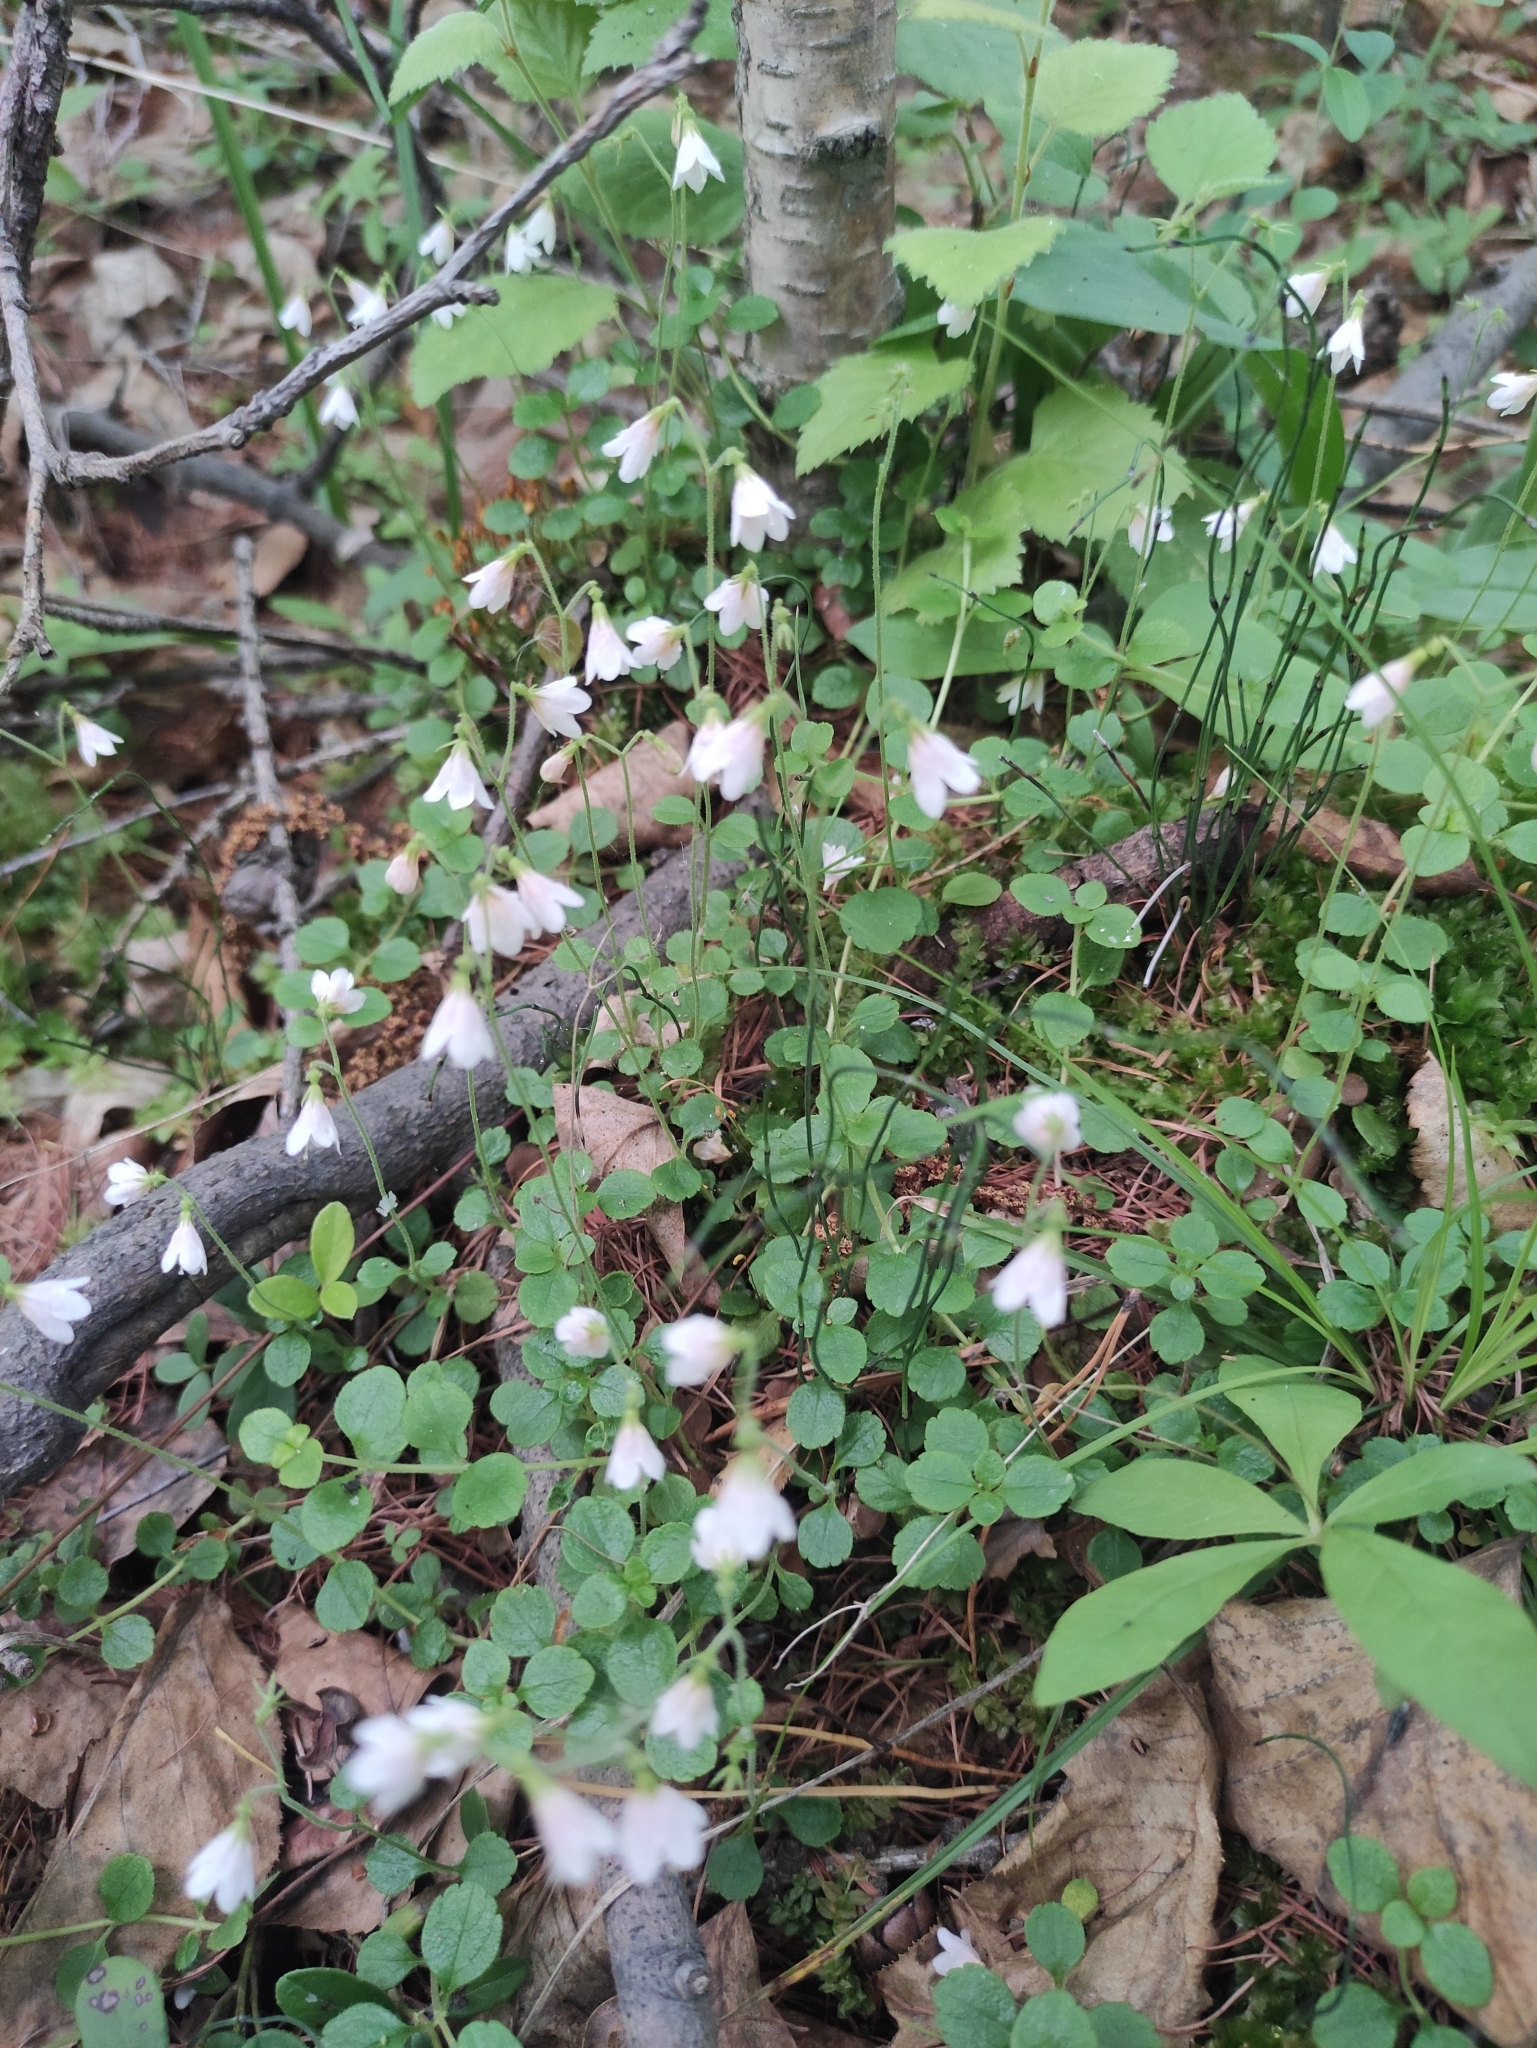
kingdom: Plantae
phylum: Tracheophyta
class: Magnoliopsida
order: Dipsacales
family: Caprifoliaceae
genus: Linnaea
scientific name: Linnaea borealis
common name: Twinflower
